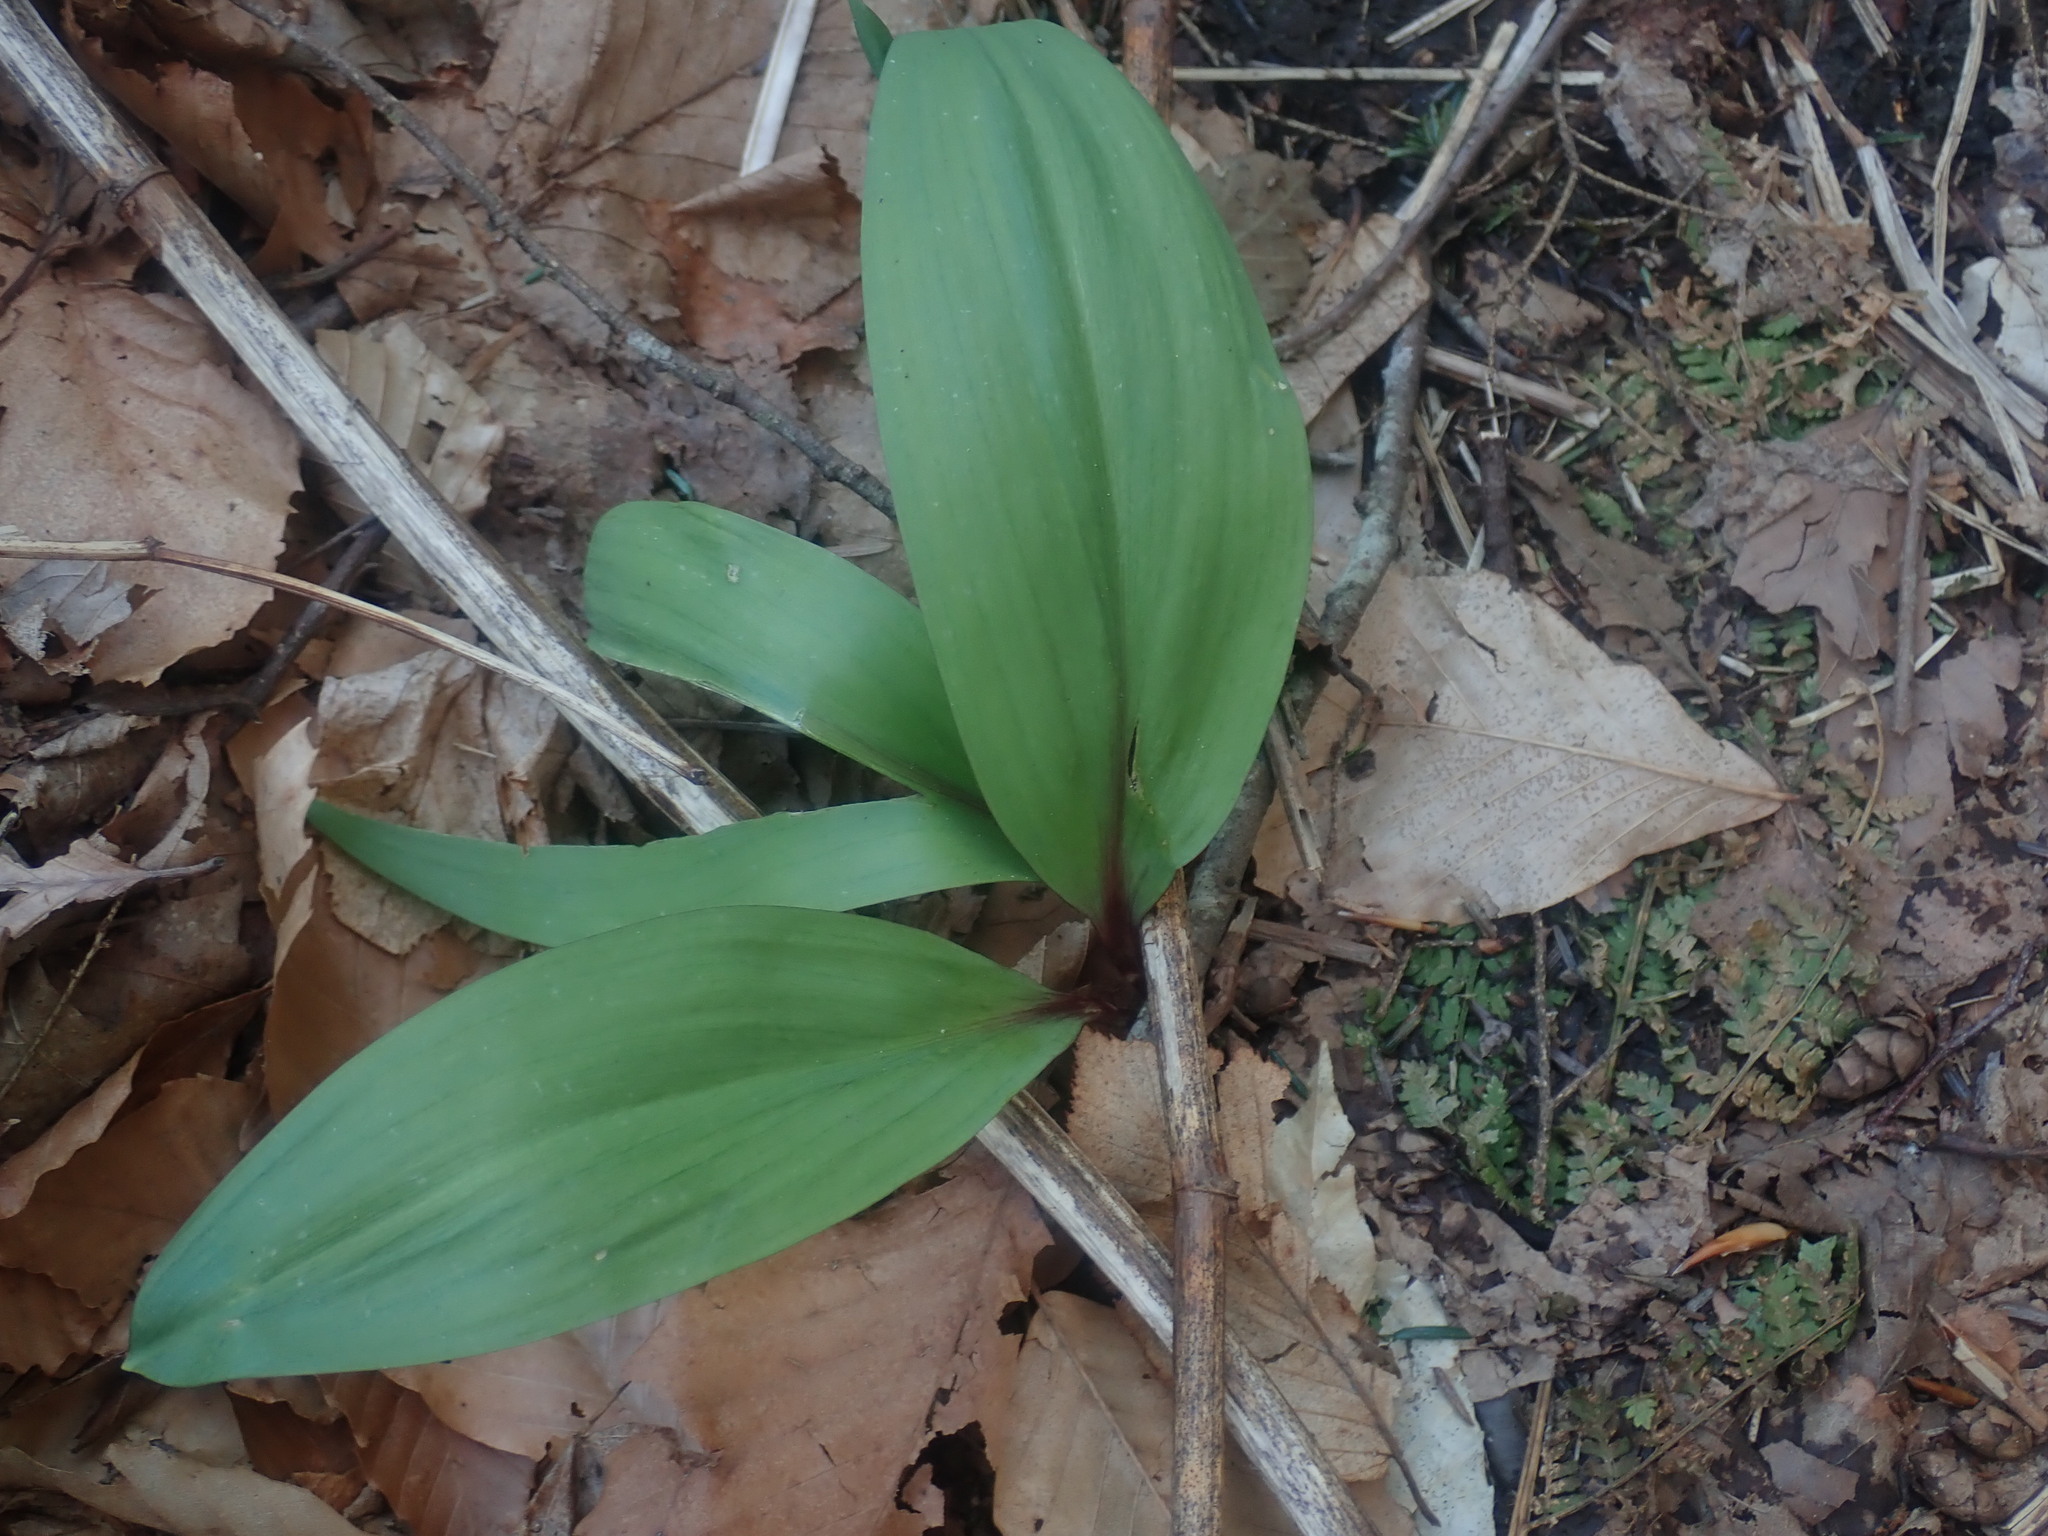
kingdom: Plantae
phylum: Tracheophyta
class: Liliopsida
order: Asparagales
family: Amaryllidaceae
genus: Allium
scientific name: Allium tricoccum
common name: Ramp
